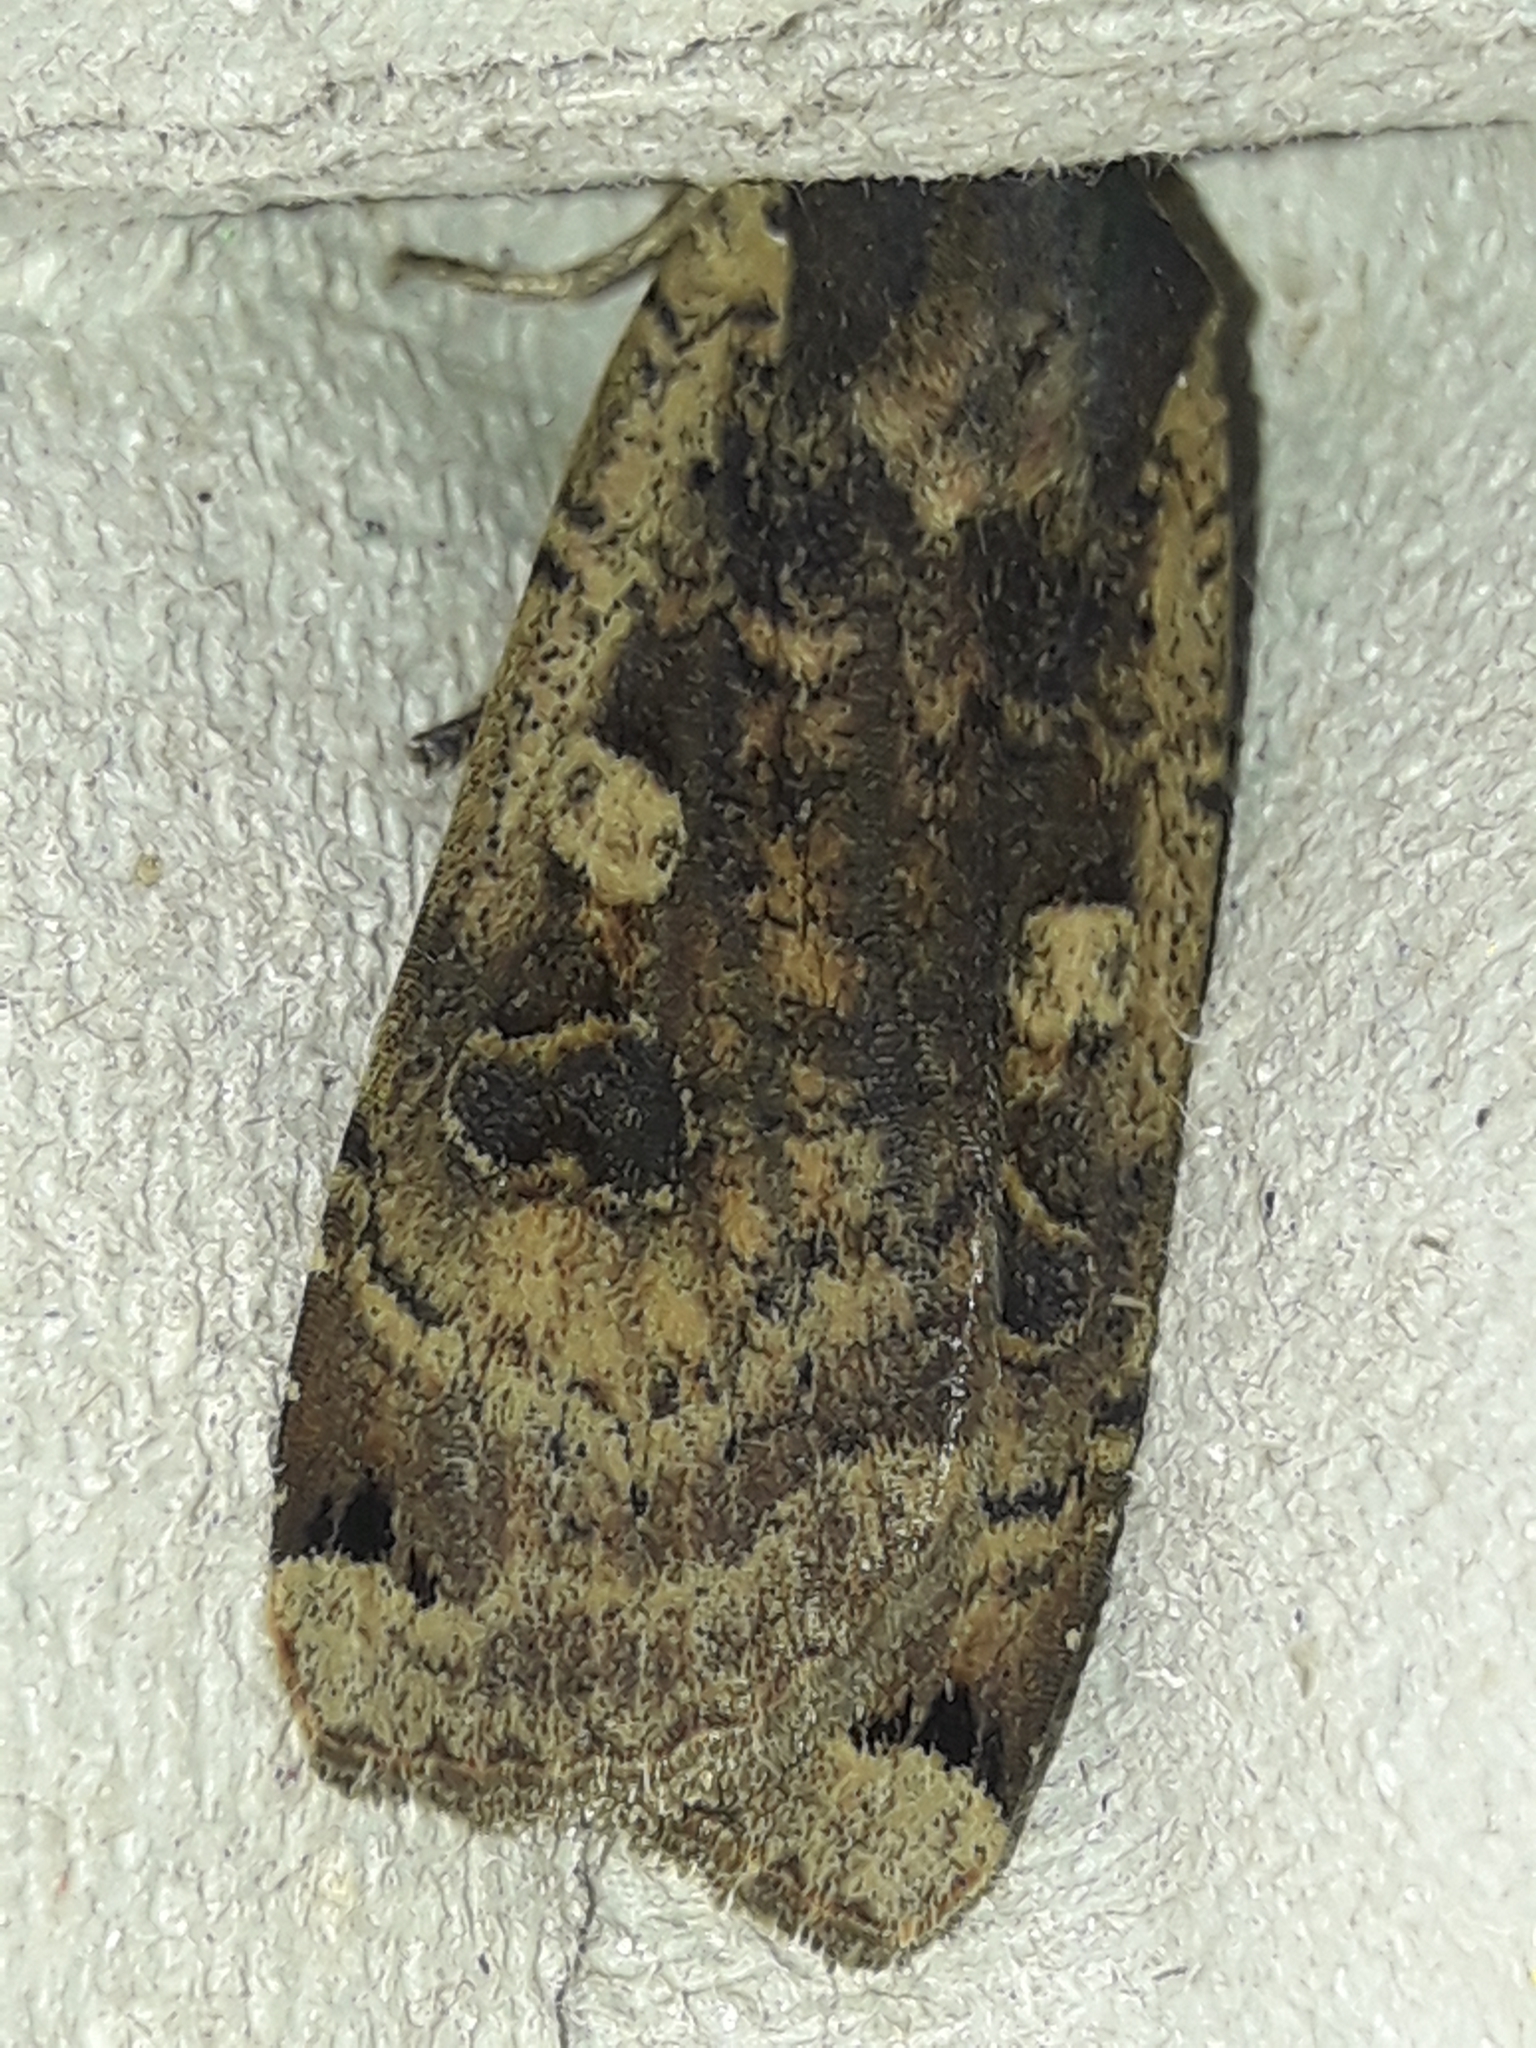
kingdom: Animalia
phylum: Arthropoda
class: Insecta
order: Lepidoptera
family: Noctuidae
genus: Noctua
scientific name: Noctua pronuba
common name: Large yellow underwing
